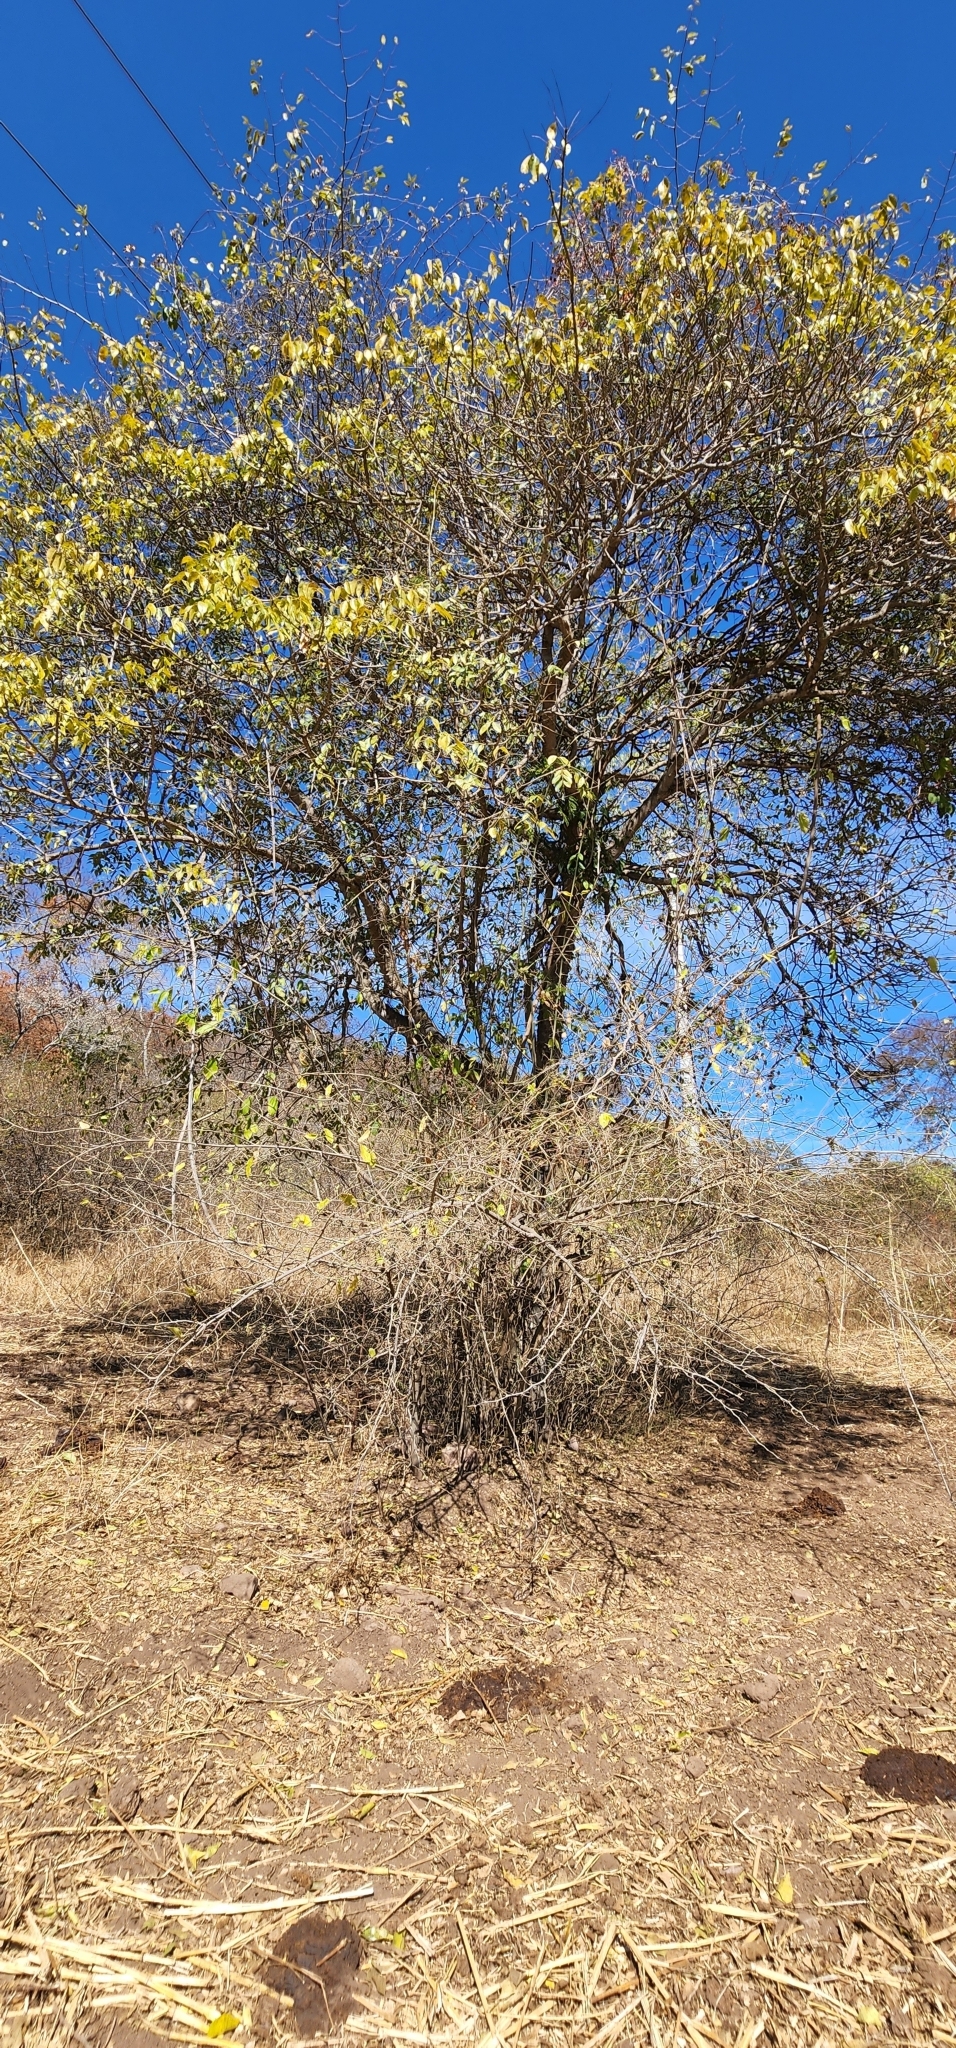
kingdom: Plantae
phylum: Tracheophyta
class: Magnoliopsida
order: Sapindales
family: Rutaceae
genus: Zanthoxylum
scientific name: Zanthoxylum petiolare
